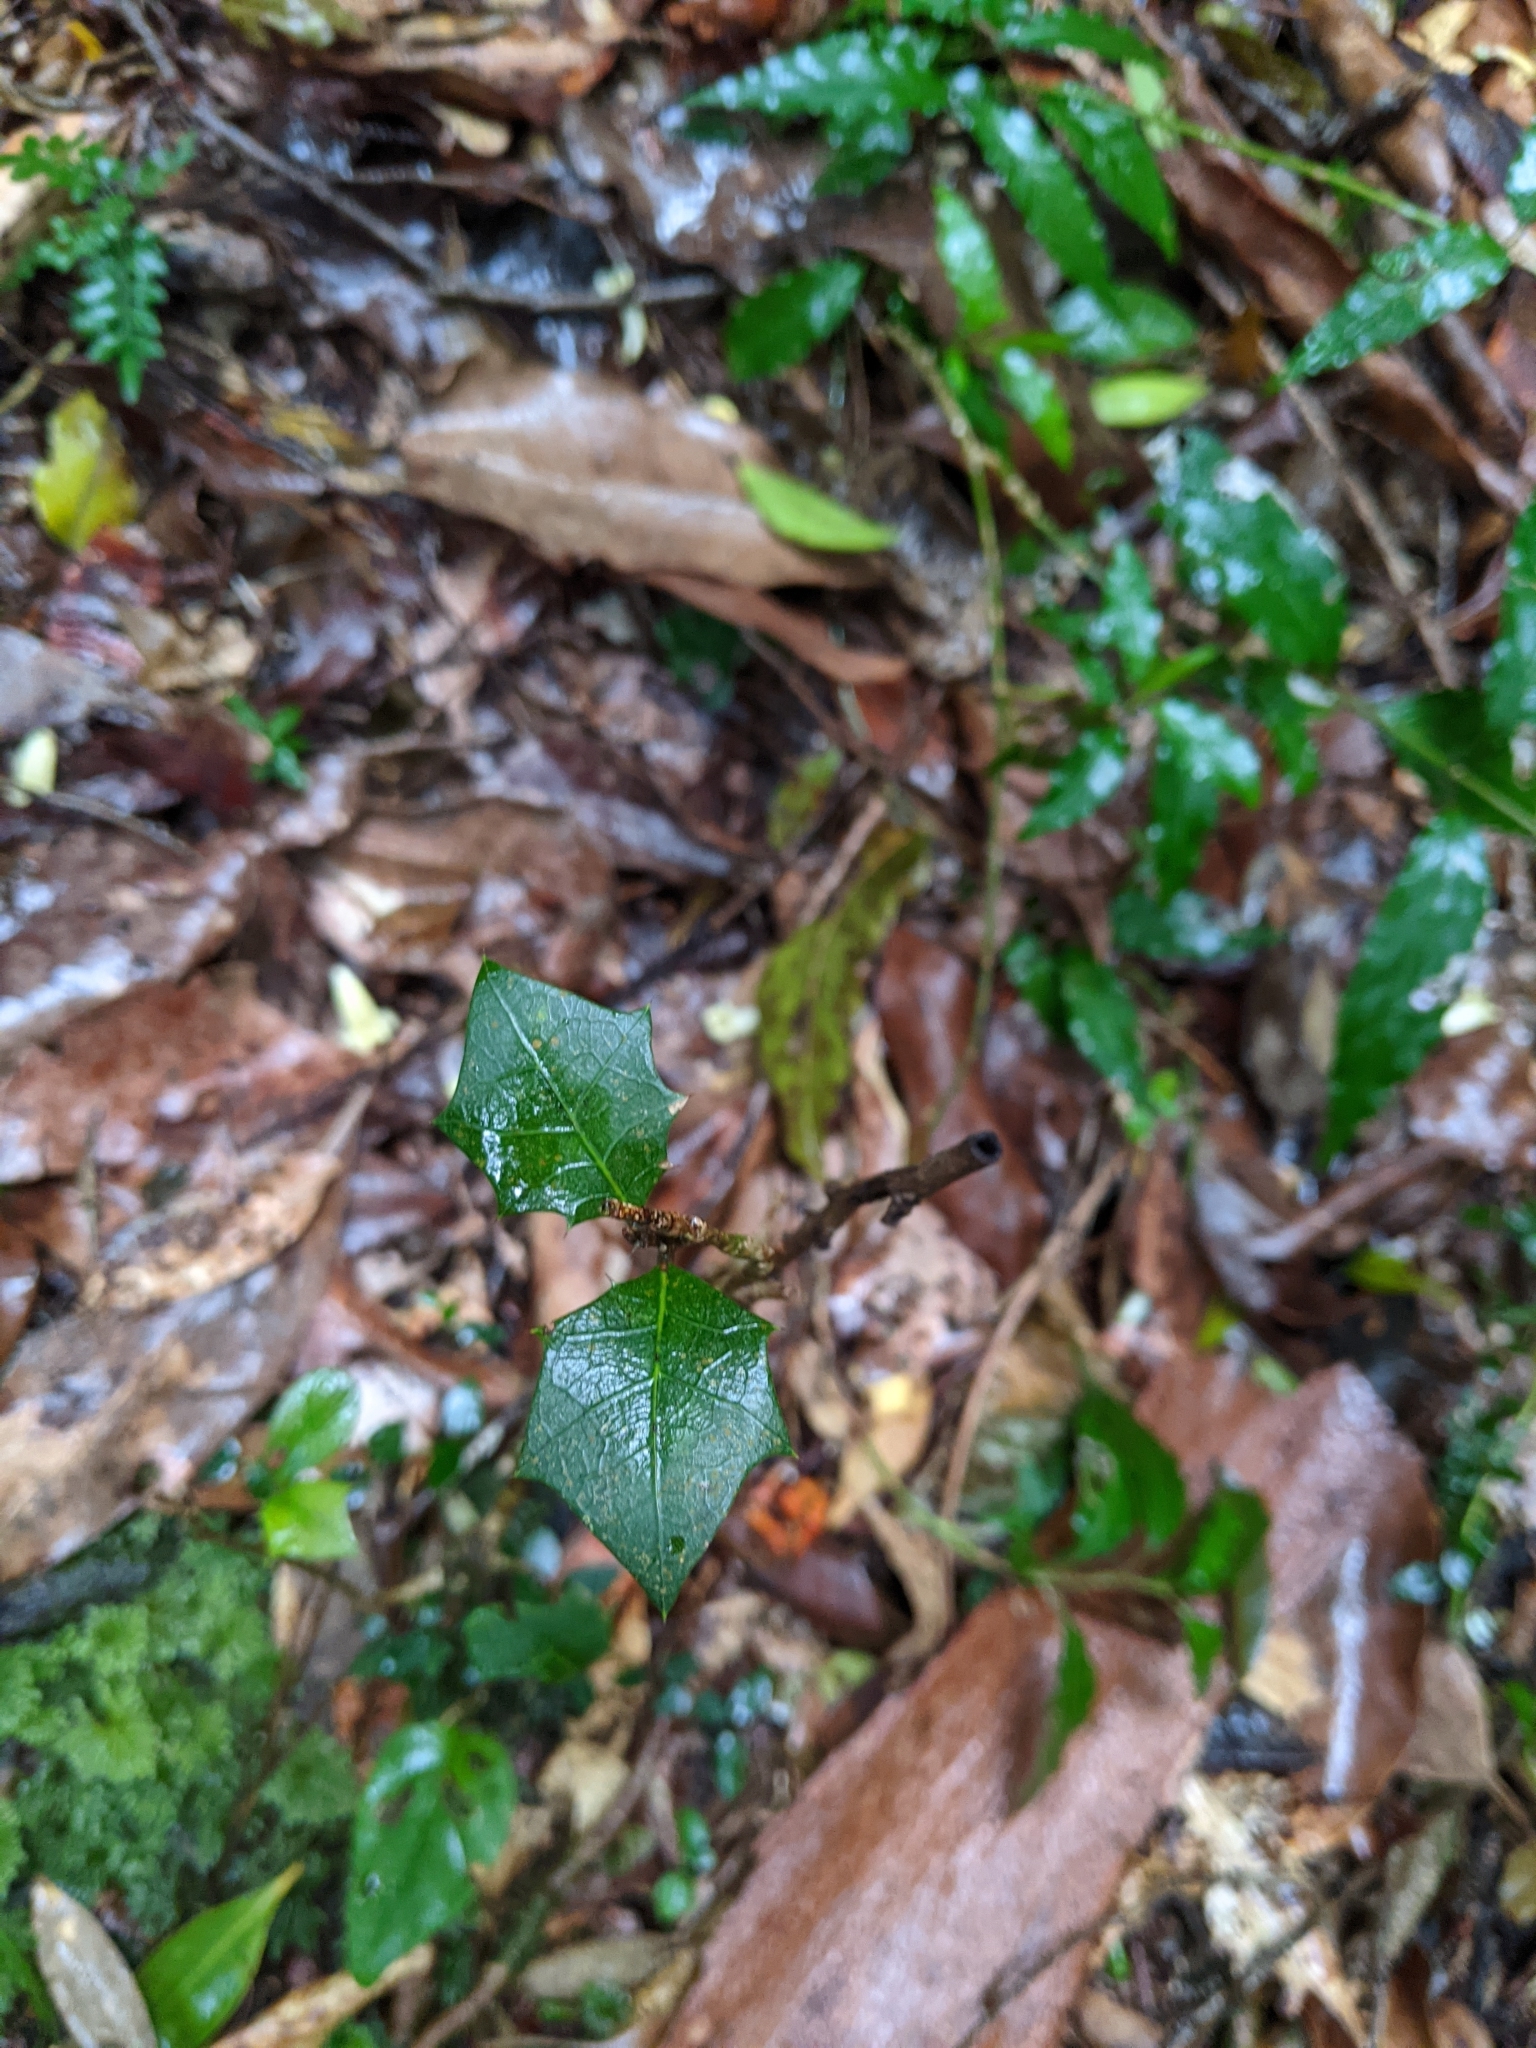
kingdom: Plantae
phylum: Tracheophyta
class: Magnoliopsida
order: Malpighiales
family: Euphorbiaceae
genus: Alchornea
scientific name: Alchornea ilicifolia
